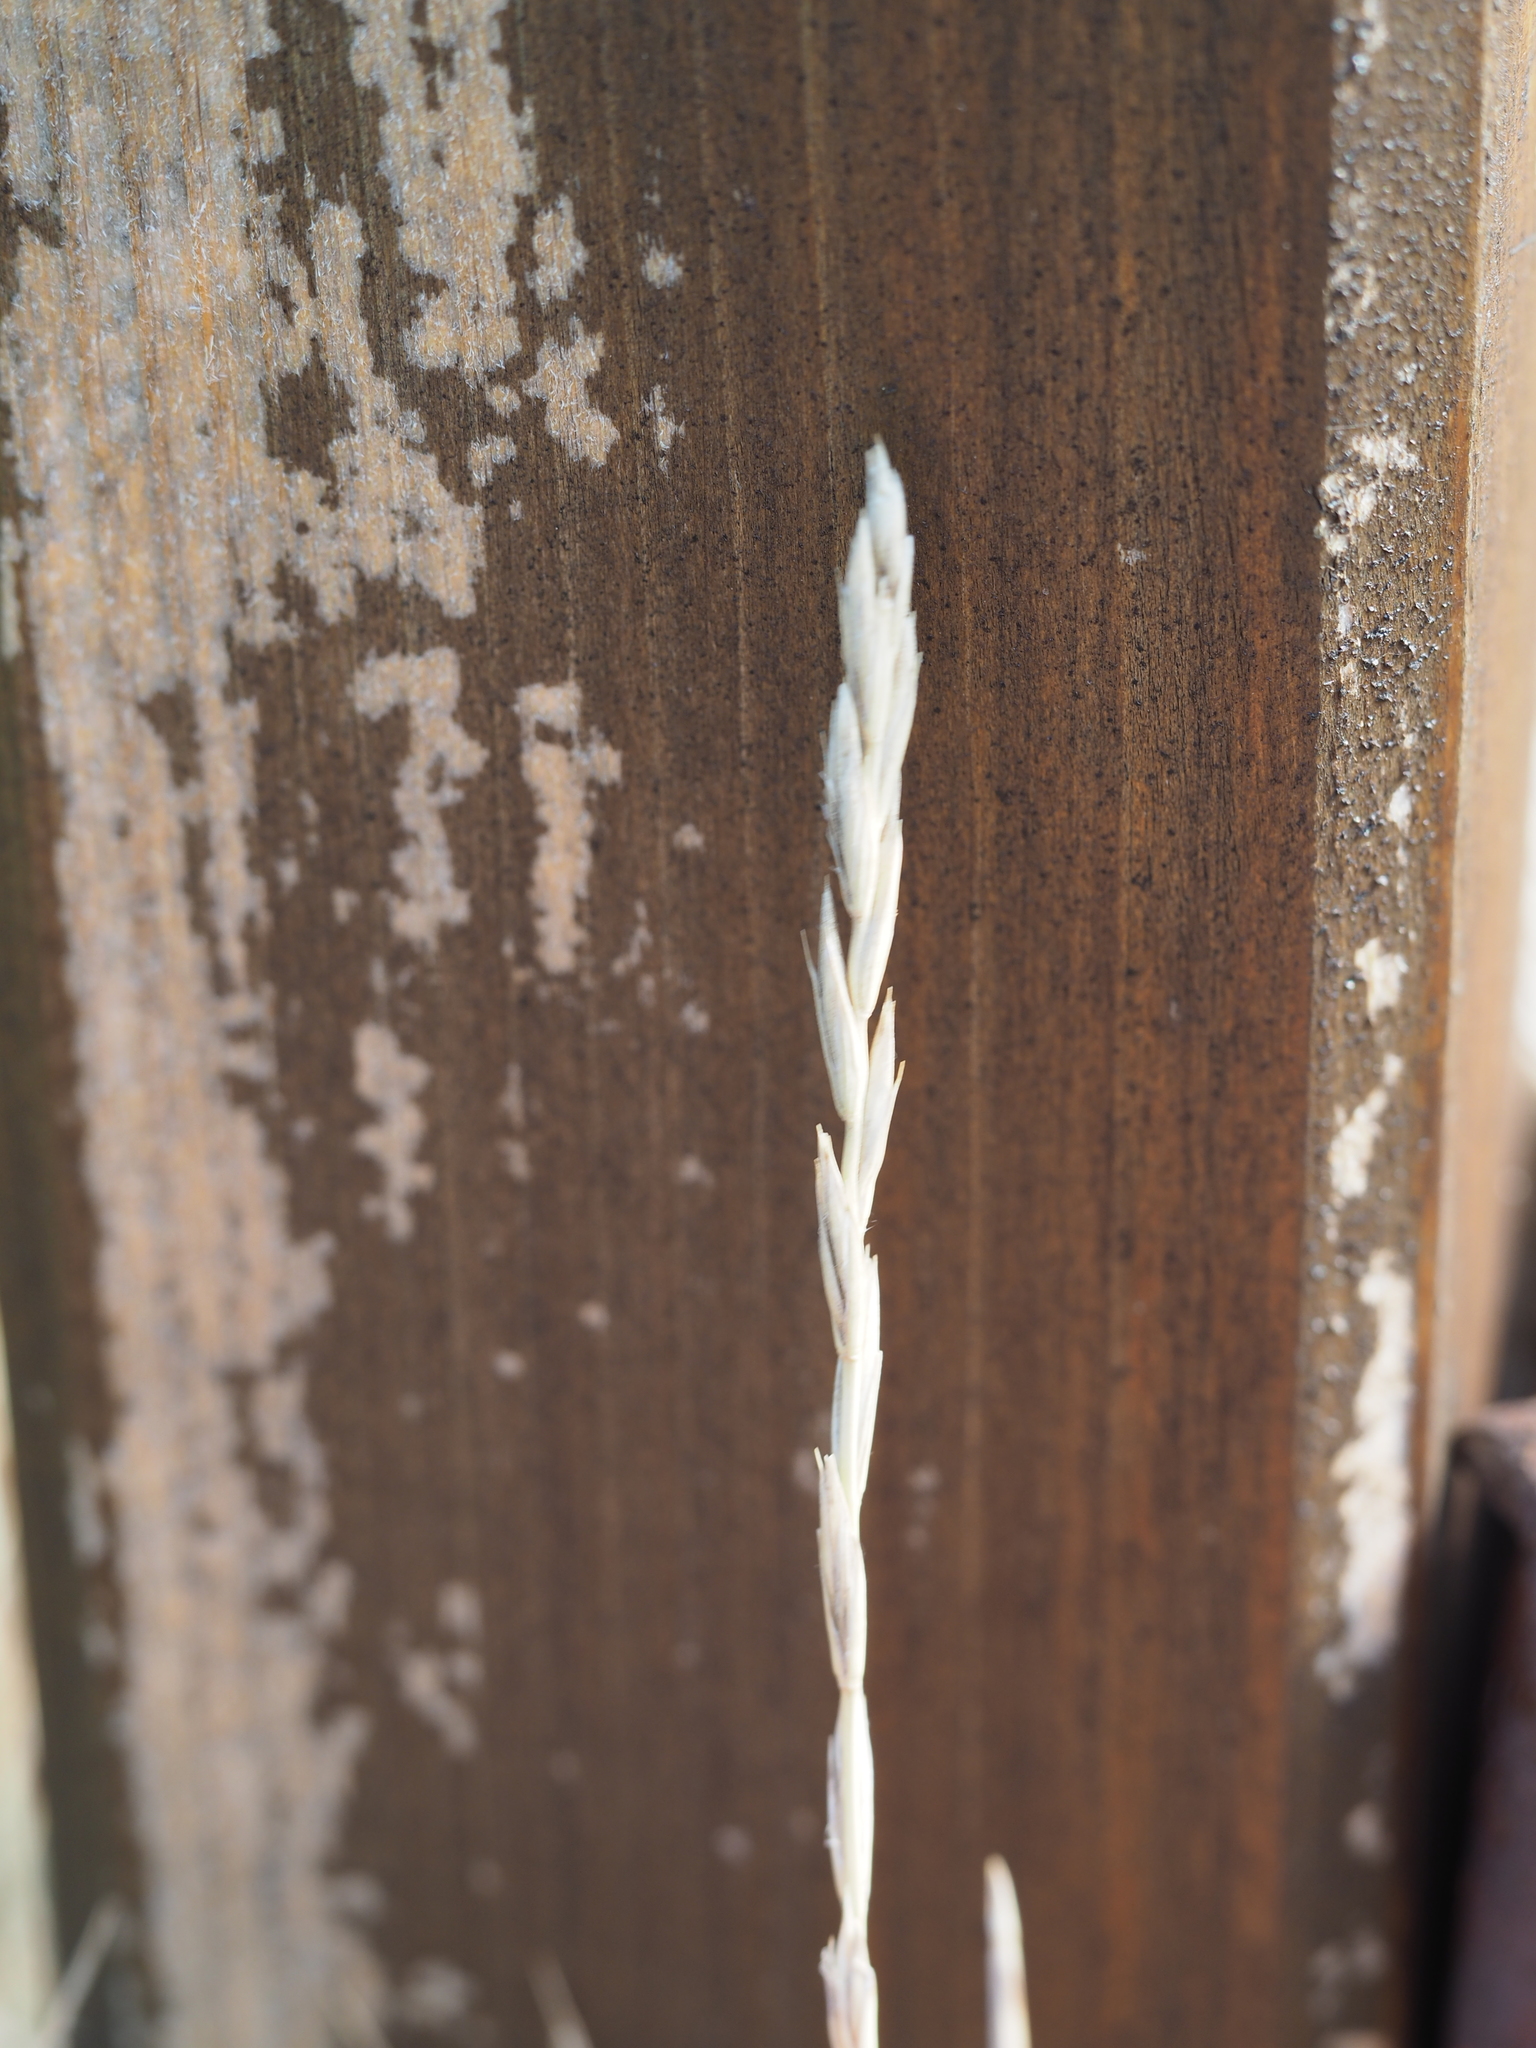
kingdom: Plantae
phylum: Tracheophyta
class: Liliopsida
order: Poales
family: Poaceae
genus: Elymus
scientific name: Elymus repens
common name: Quackgrass
